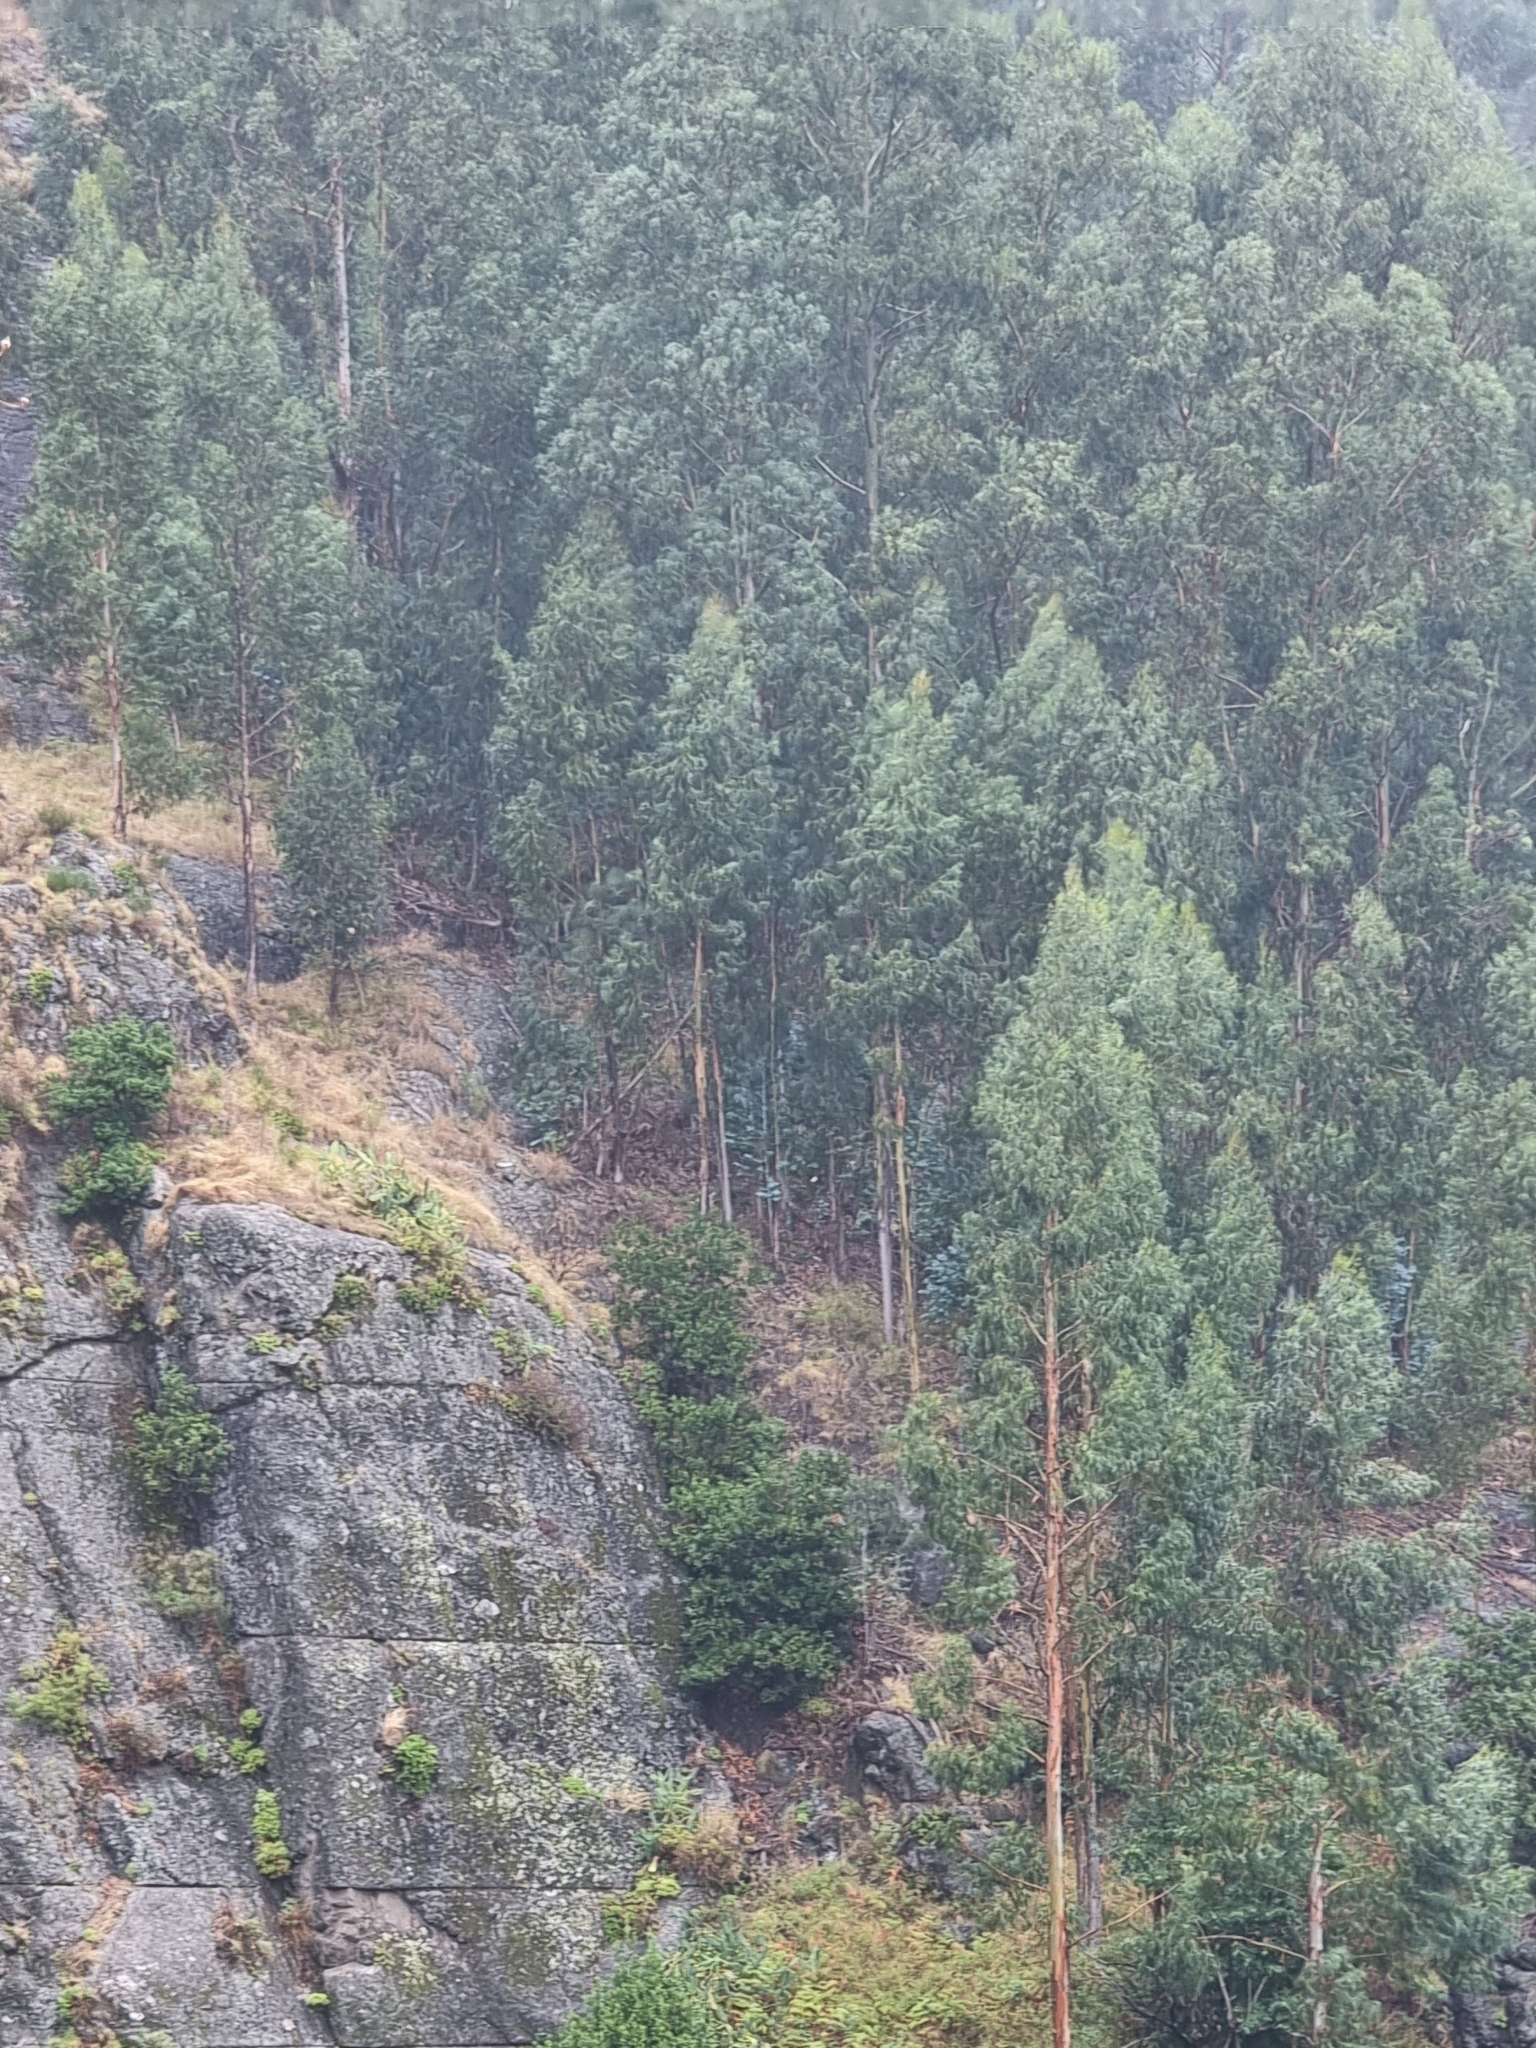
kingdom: Plantae
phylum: Tracheophyta
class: Magnoliopsida
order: Myrtales
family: Myrtaceae
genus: Eucalyptus
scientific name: Eucalyptus globulus
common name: Southern blue-gum
